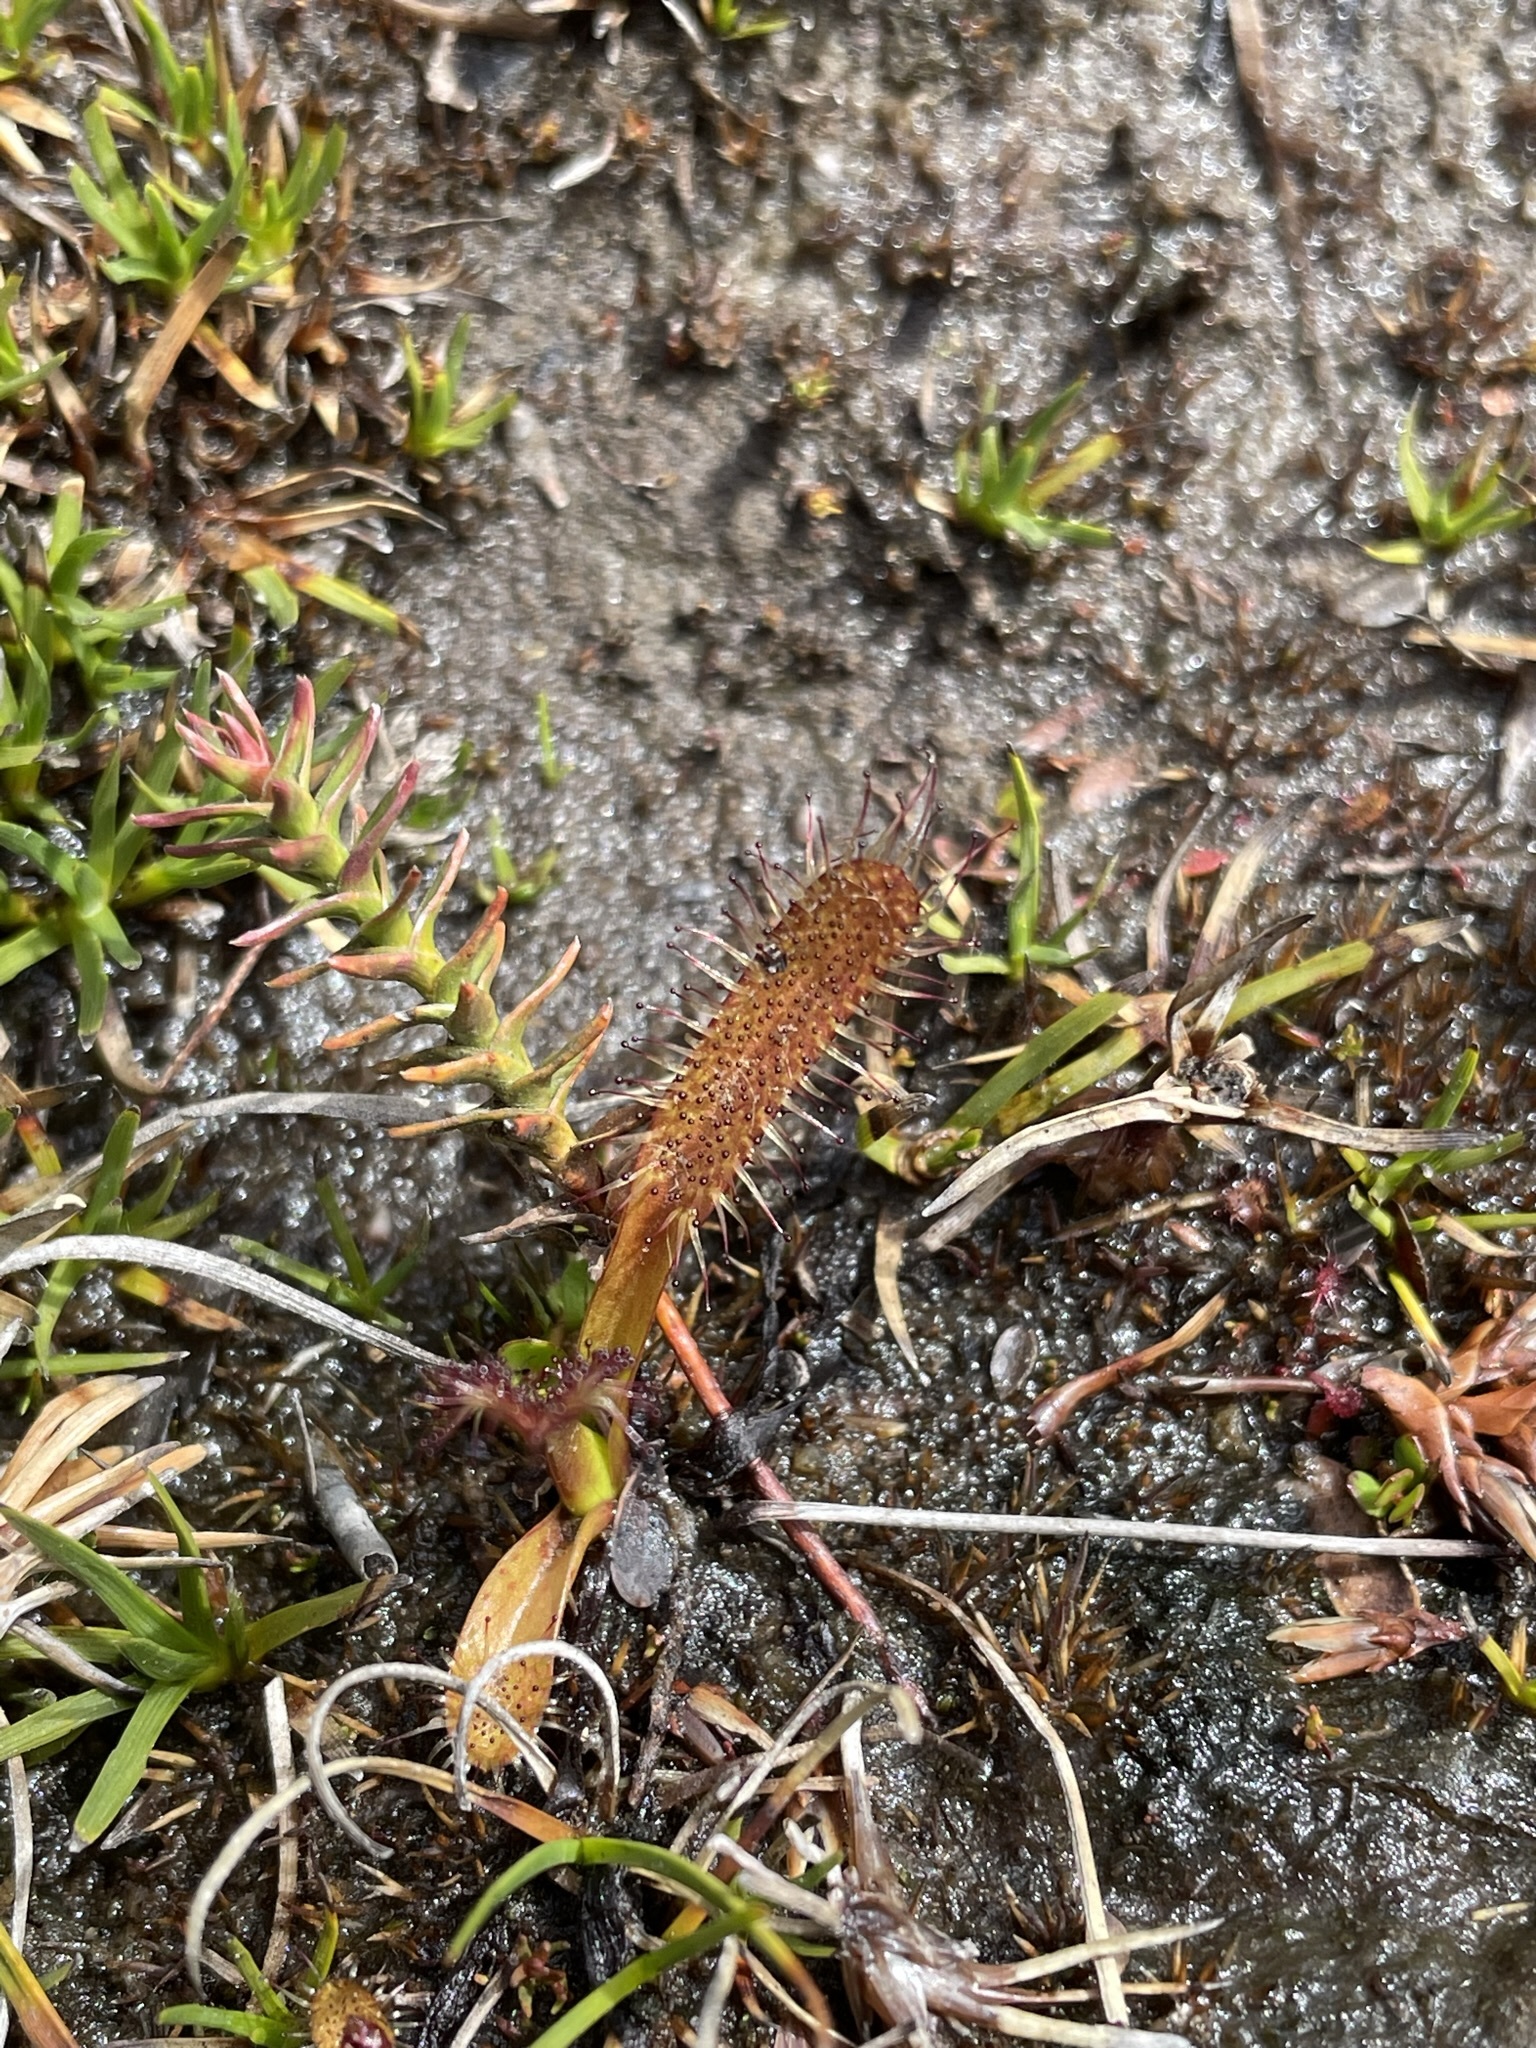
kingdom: Plantae
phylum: Tracheophyta
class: Magnoliopsida
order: Caryophyllales
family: Droseraceae
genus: Drosera
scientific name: Drosera arcturi
